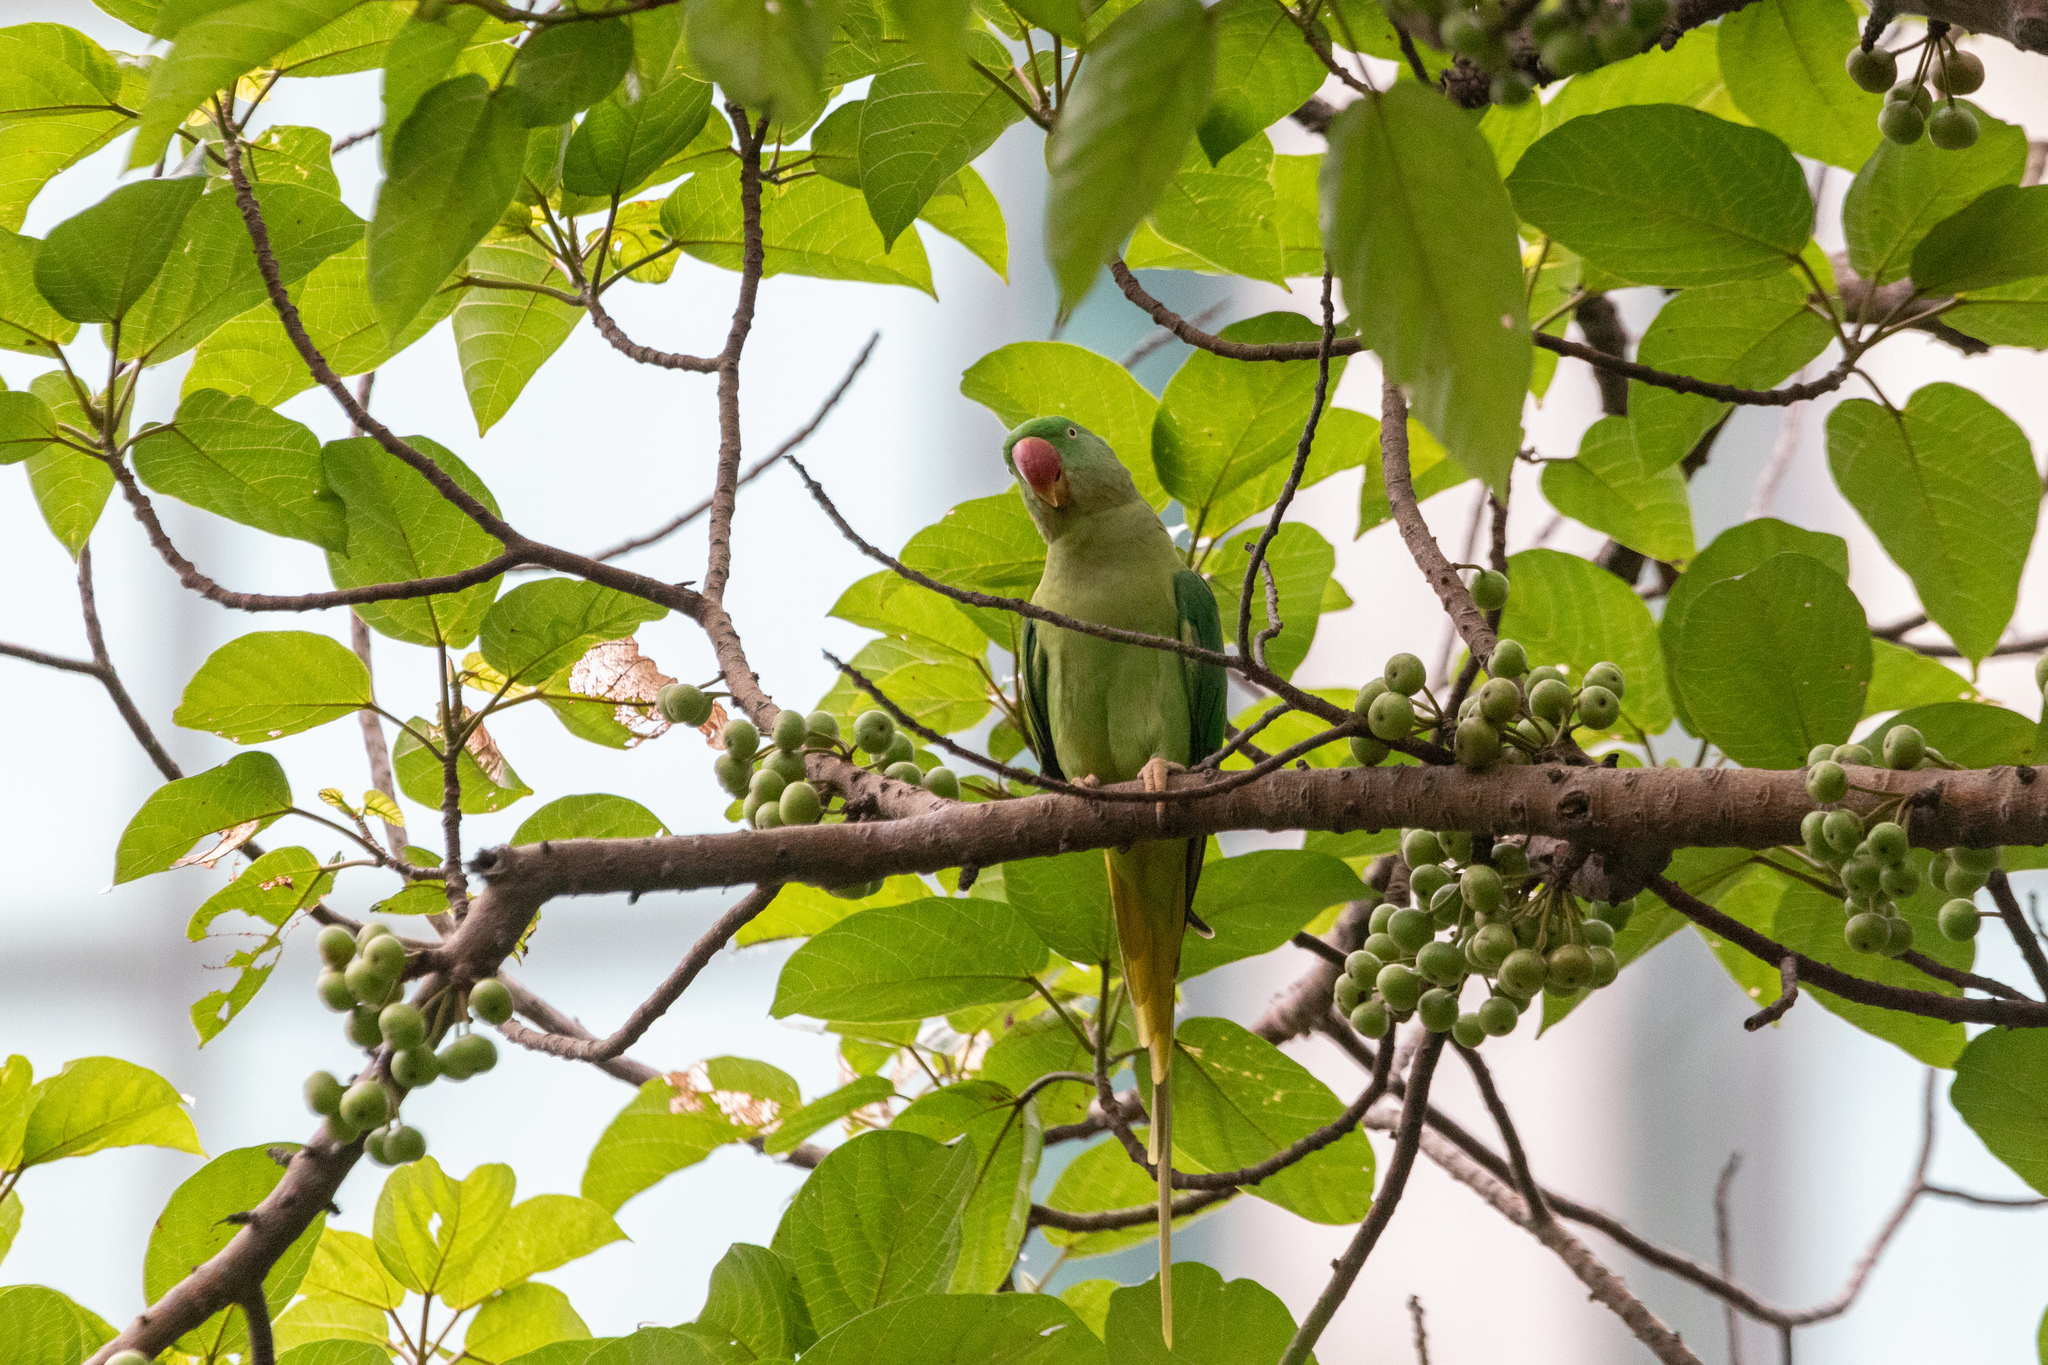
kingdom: Animalia
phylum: Chordata
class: Aves
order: Psittaciformes
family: Psittacidae
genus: Psittacula
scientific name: Psittacula eupatria
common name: Alexandrine parakeet
